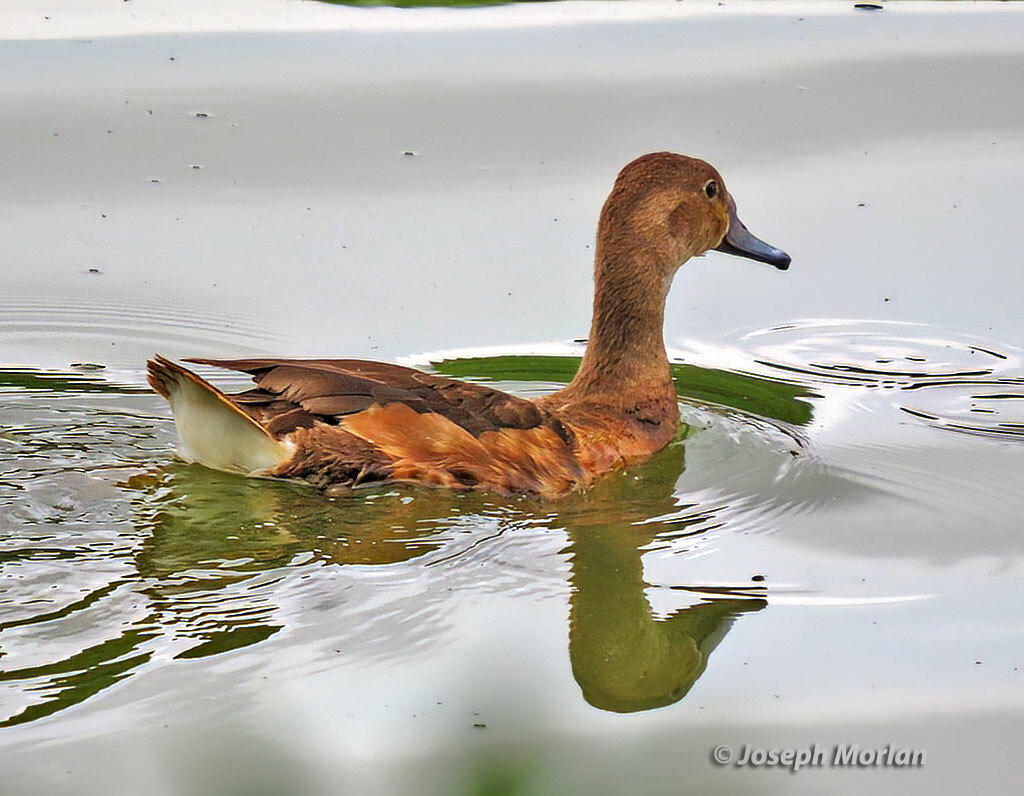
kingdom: Animalia
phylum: Chordata
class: Aves
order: Anseriformes
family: Anatidae
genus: Netta
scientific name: Netta peposaca
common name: Rosy-billed pochard
